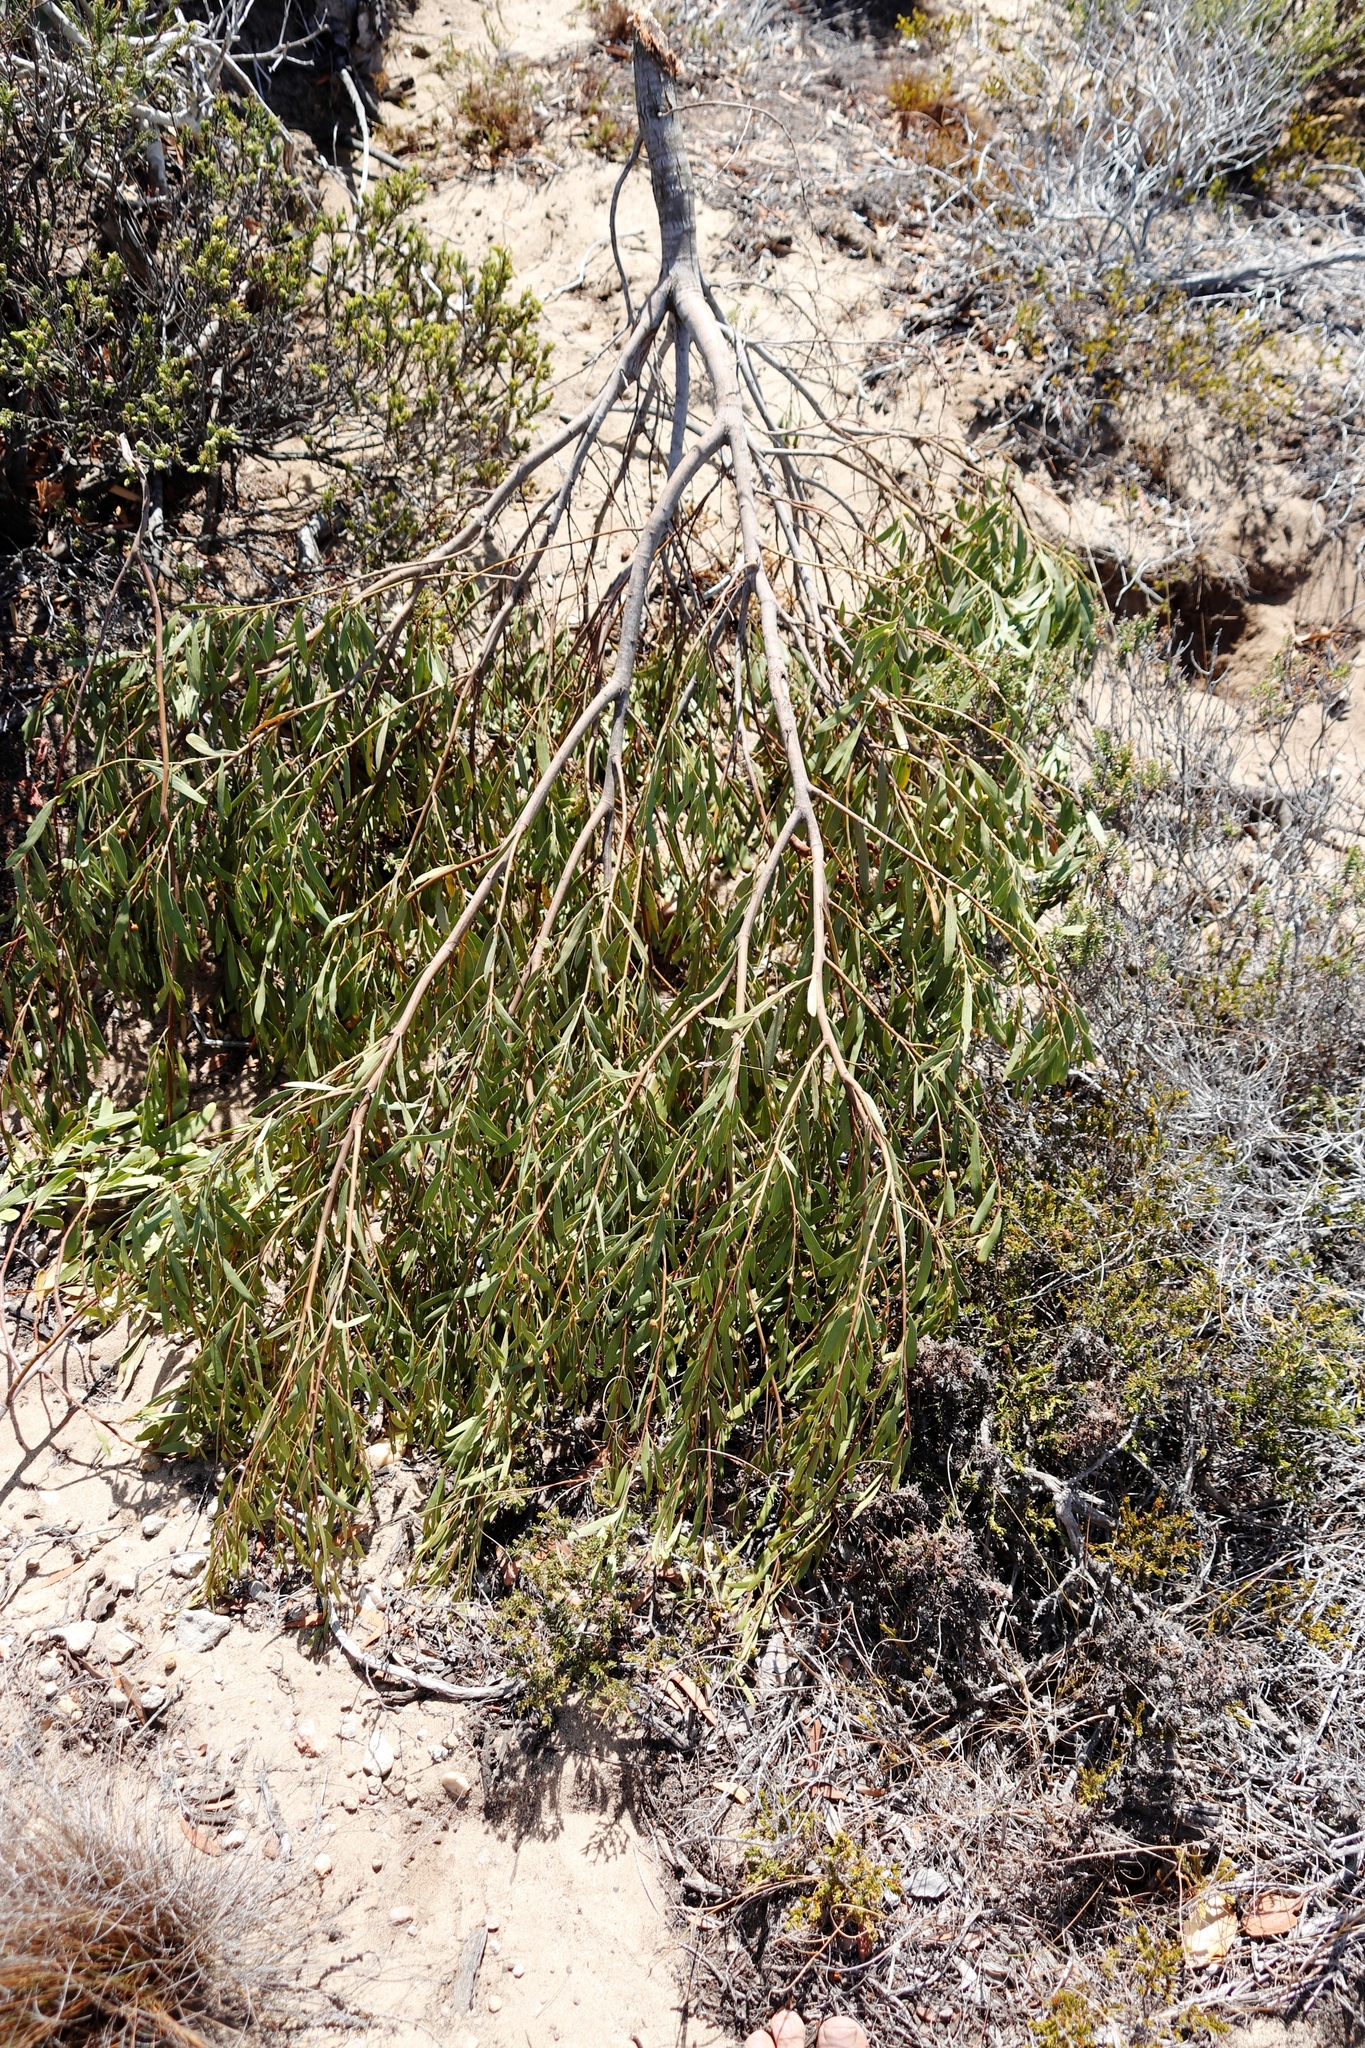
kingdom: Plantae
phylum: Tracheophyta
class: Magnoliopsida
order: Fabales
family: Fabaceae
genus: Acacia
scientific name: Acacia cyclops
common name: Coastal wattle
